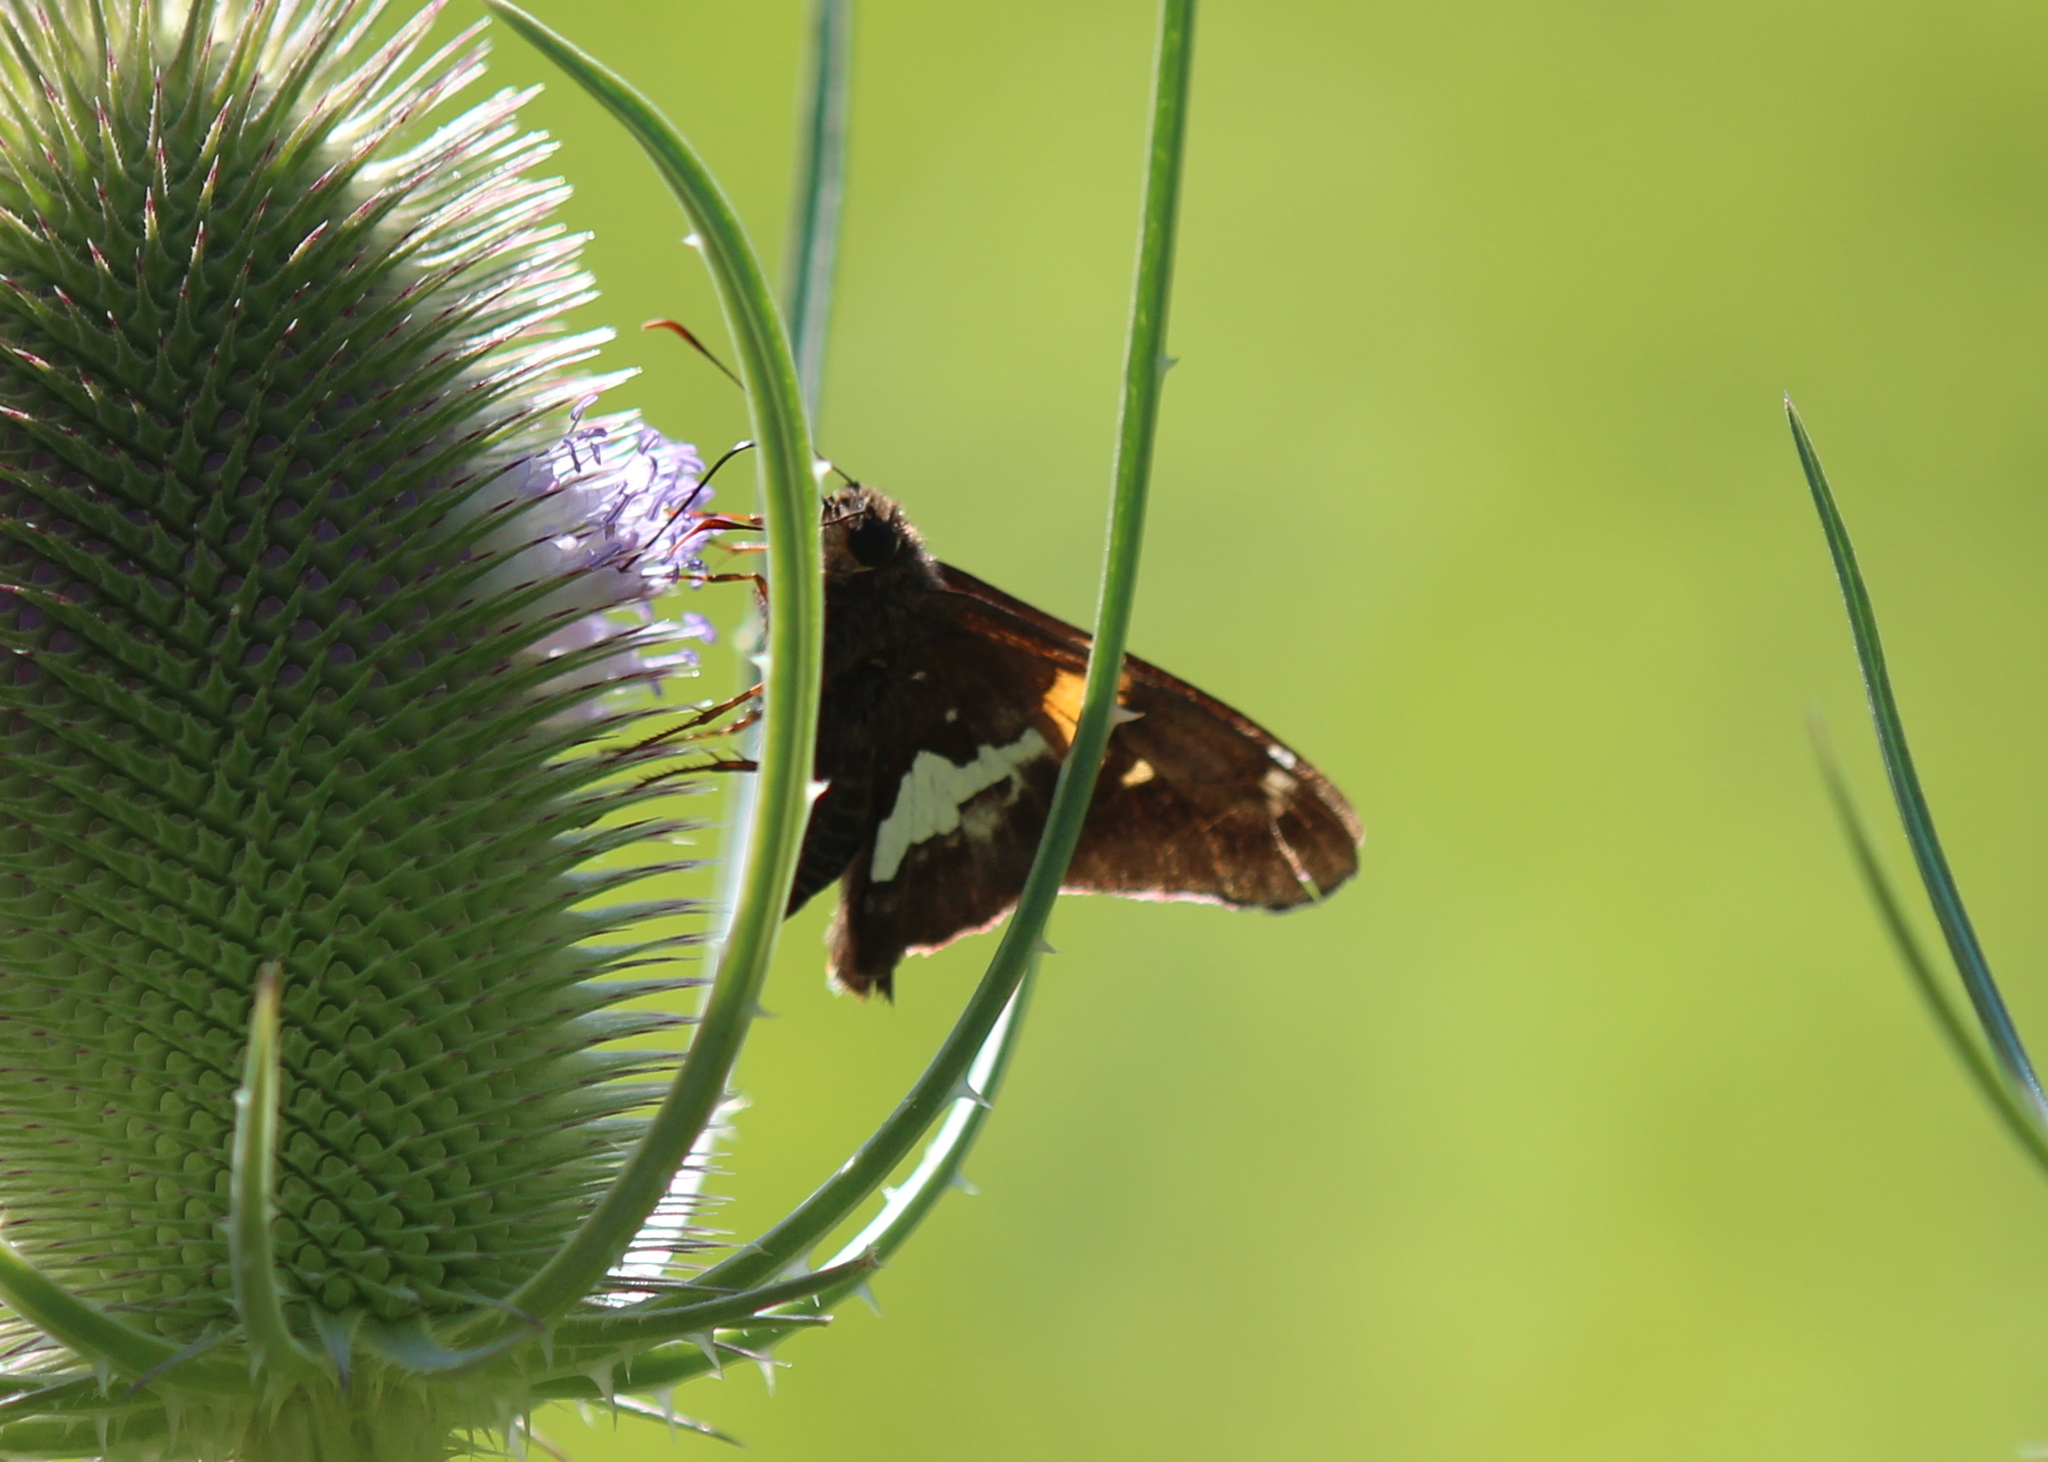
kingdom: Animalia
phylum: Arthropoda
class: Insecta
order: Lepidoptera
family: Hesperiidae
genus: Epargyreus
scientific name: Epargyreus clarus
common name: Silver-spotted skipper
